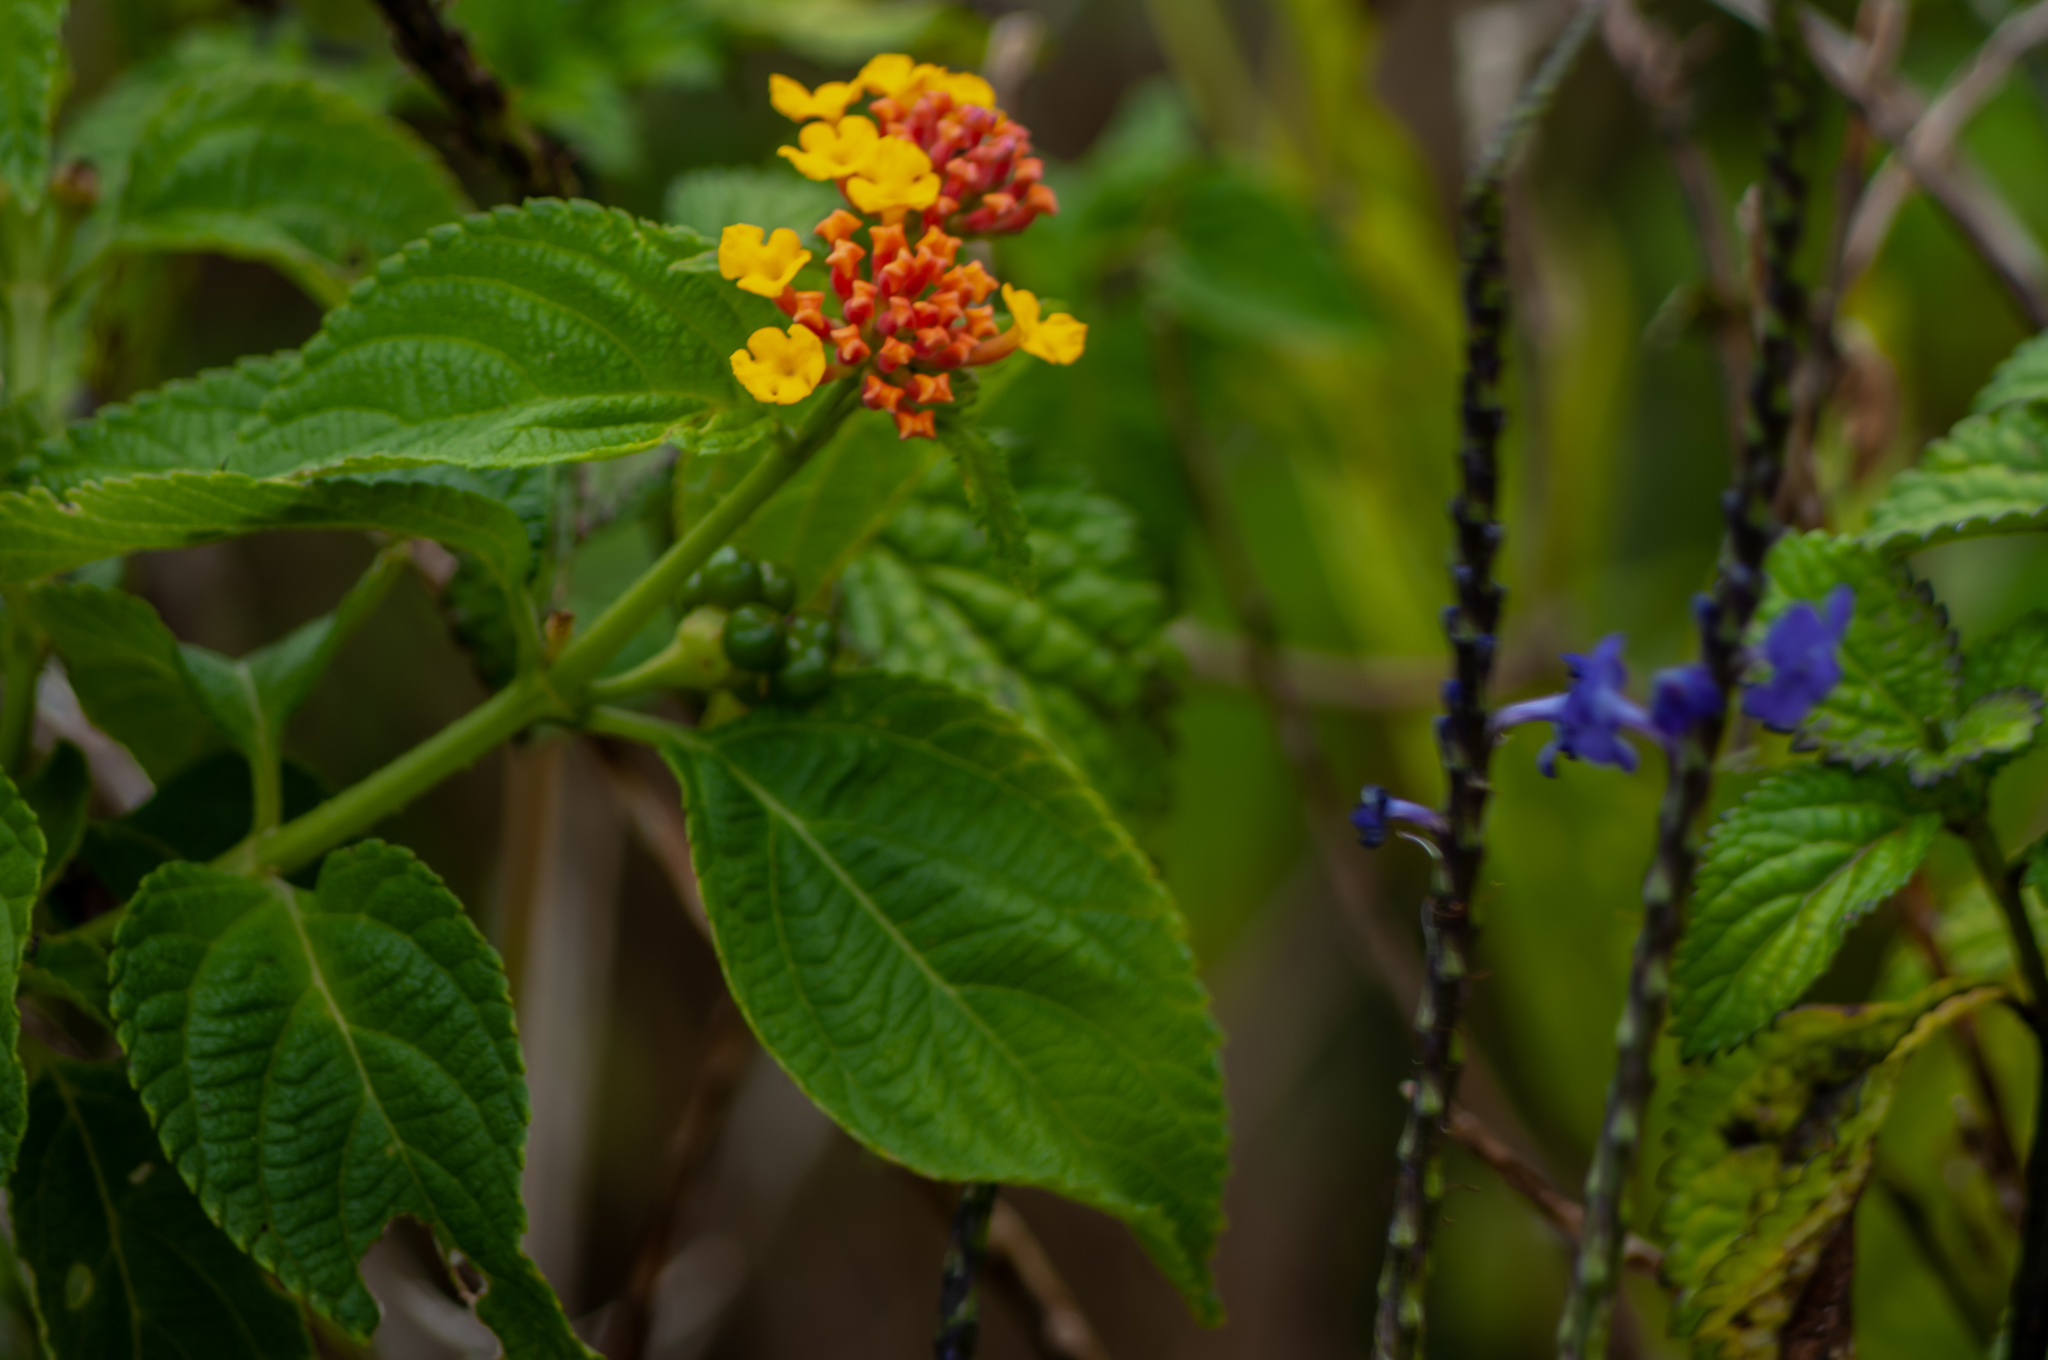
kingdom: Plantae
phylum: Tracheophyta
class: Magnoliopsida
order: Lamiales
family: Verbenaceae
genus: Lantana
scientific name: Lantana camara
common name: Lantana
